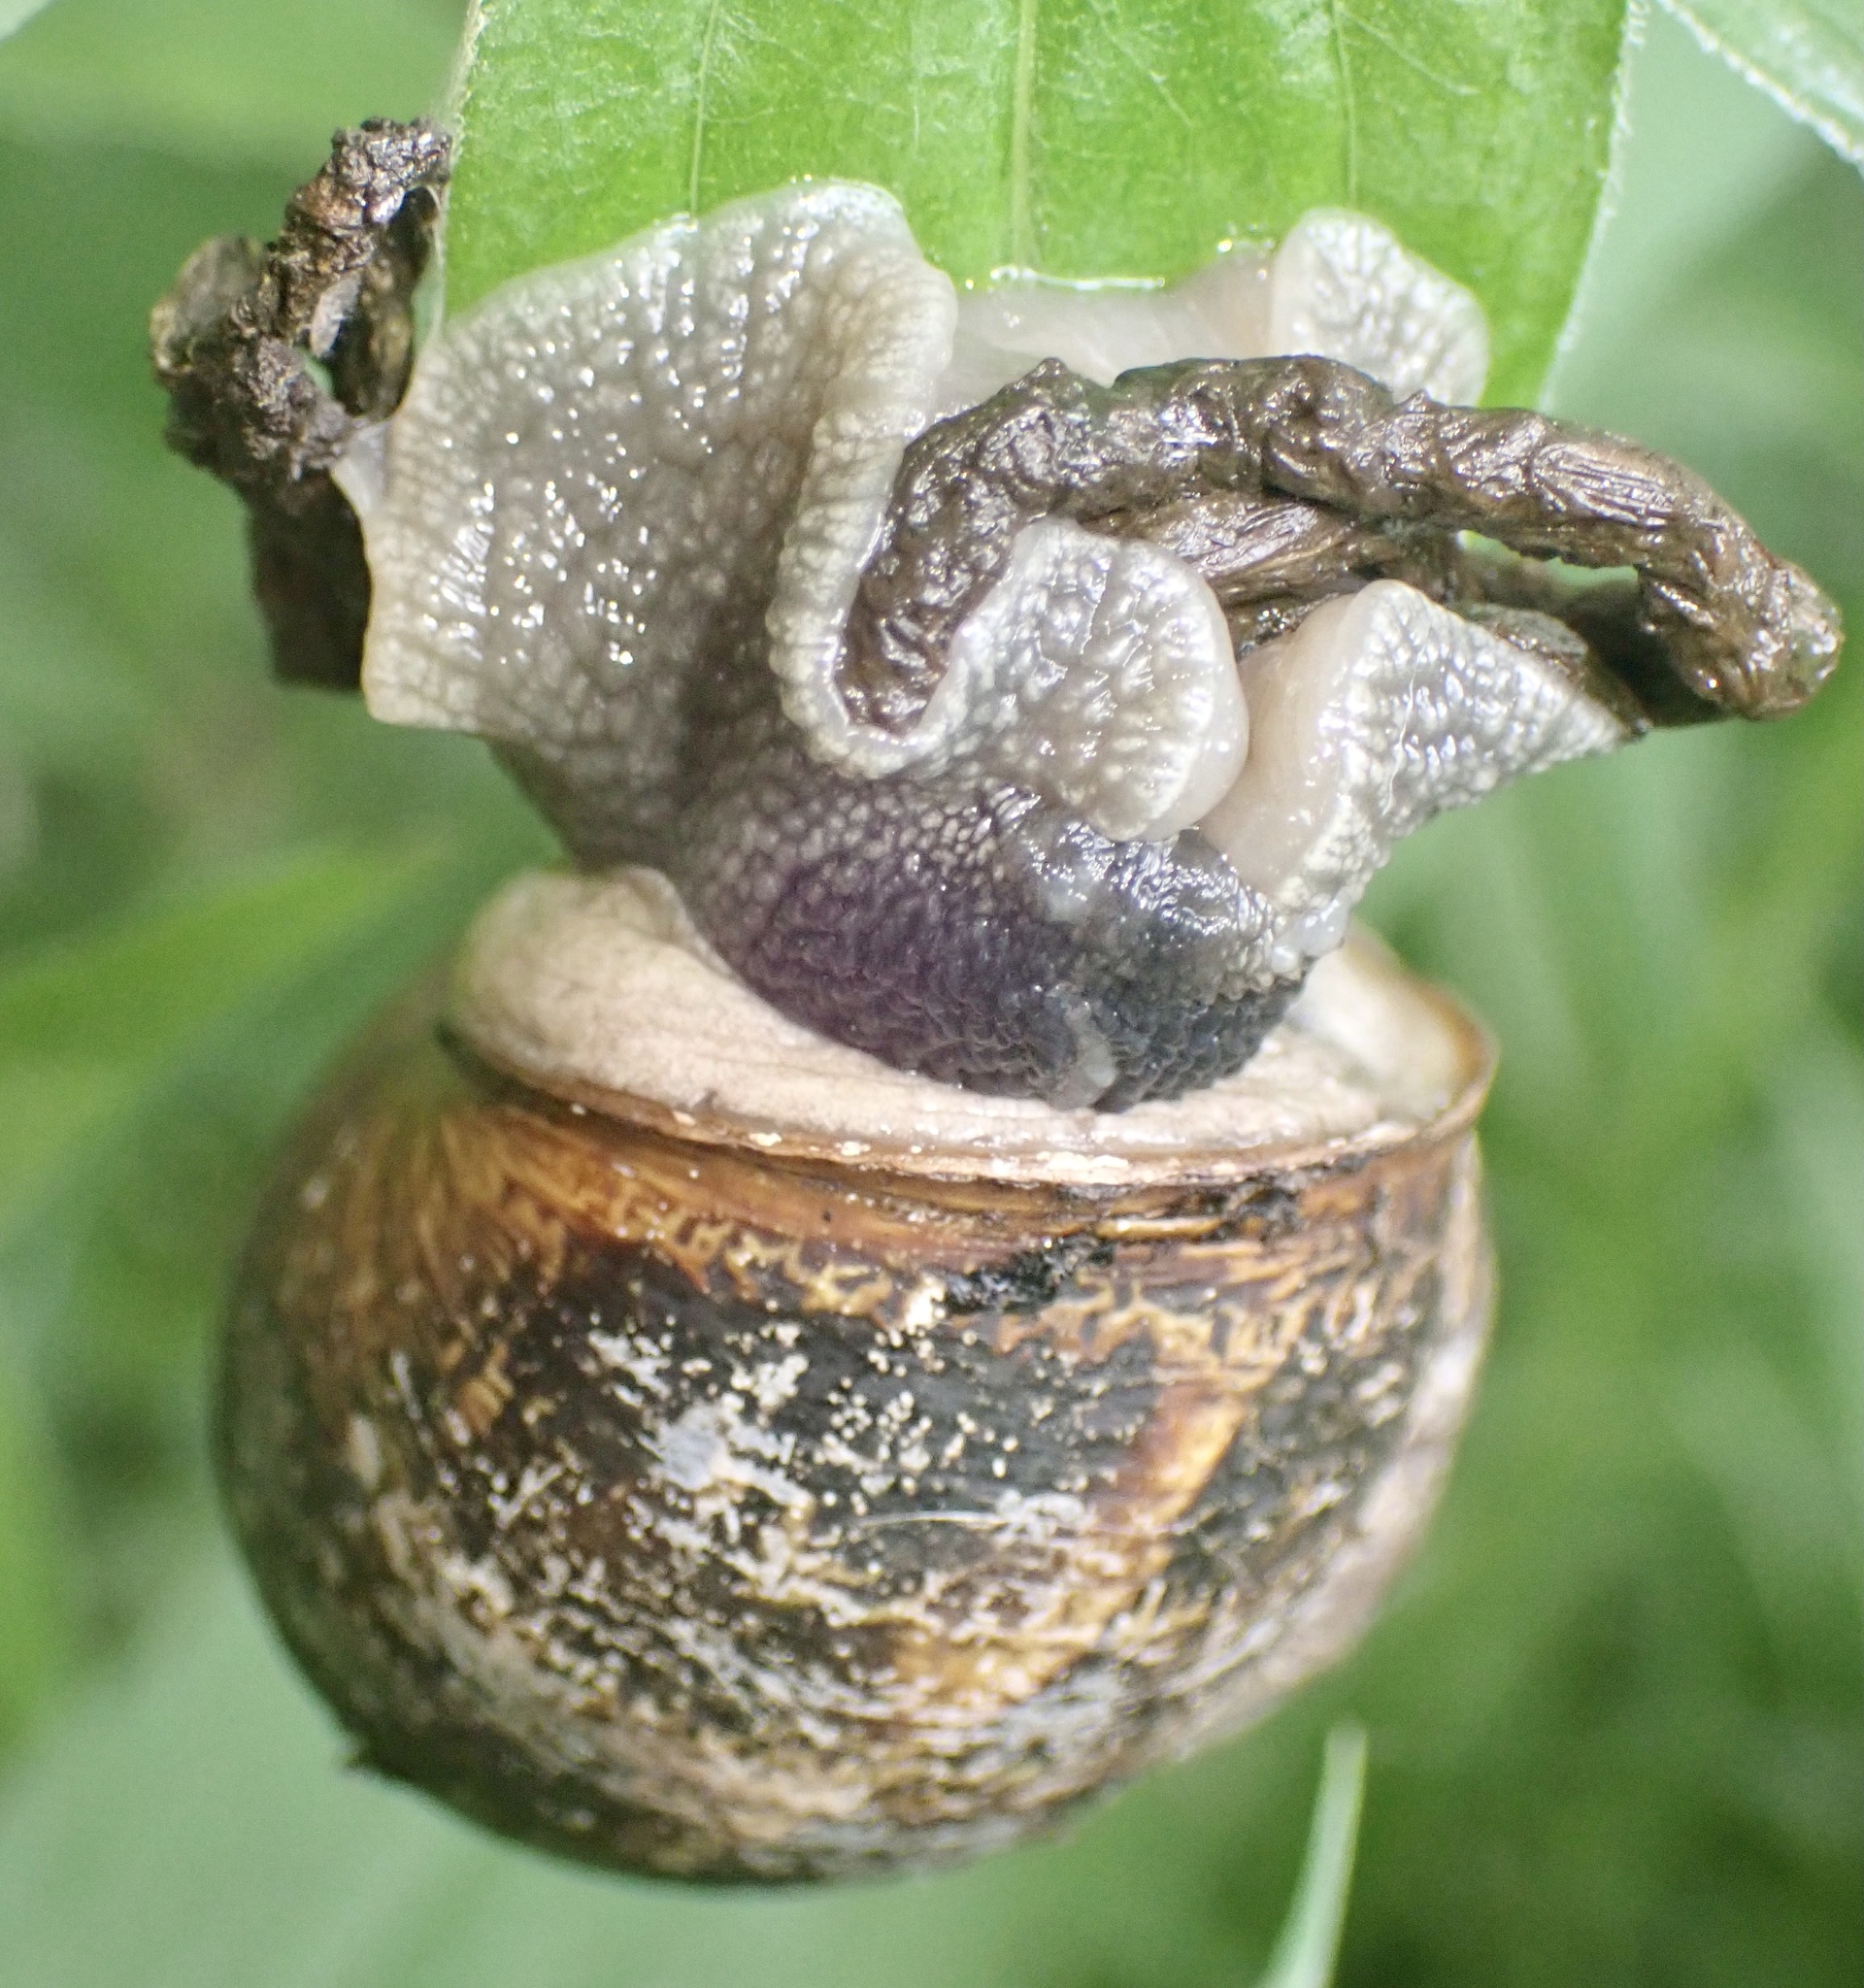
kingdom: Animalia
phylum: Mollusca
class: Gastropoda
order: Stylommatophora
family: Helicidae
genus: Cornu
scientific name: Cornu aspersum
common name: Brown garden snail
